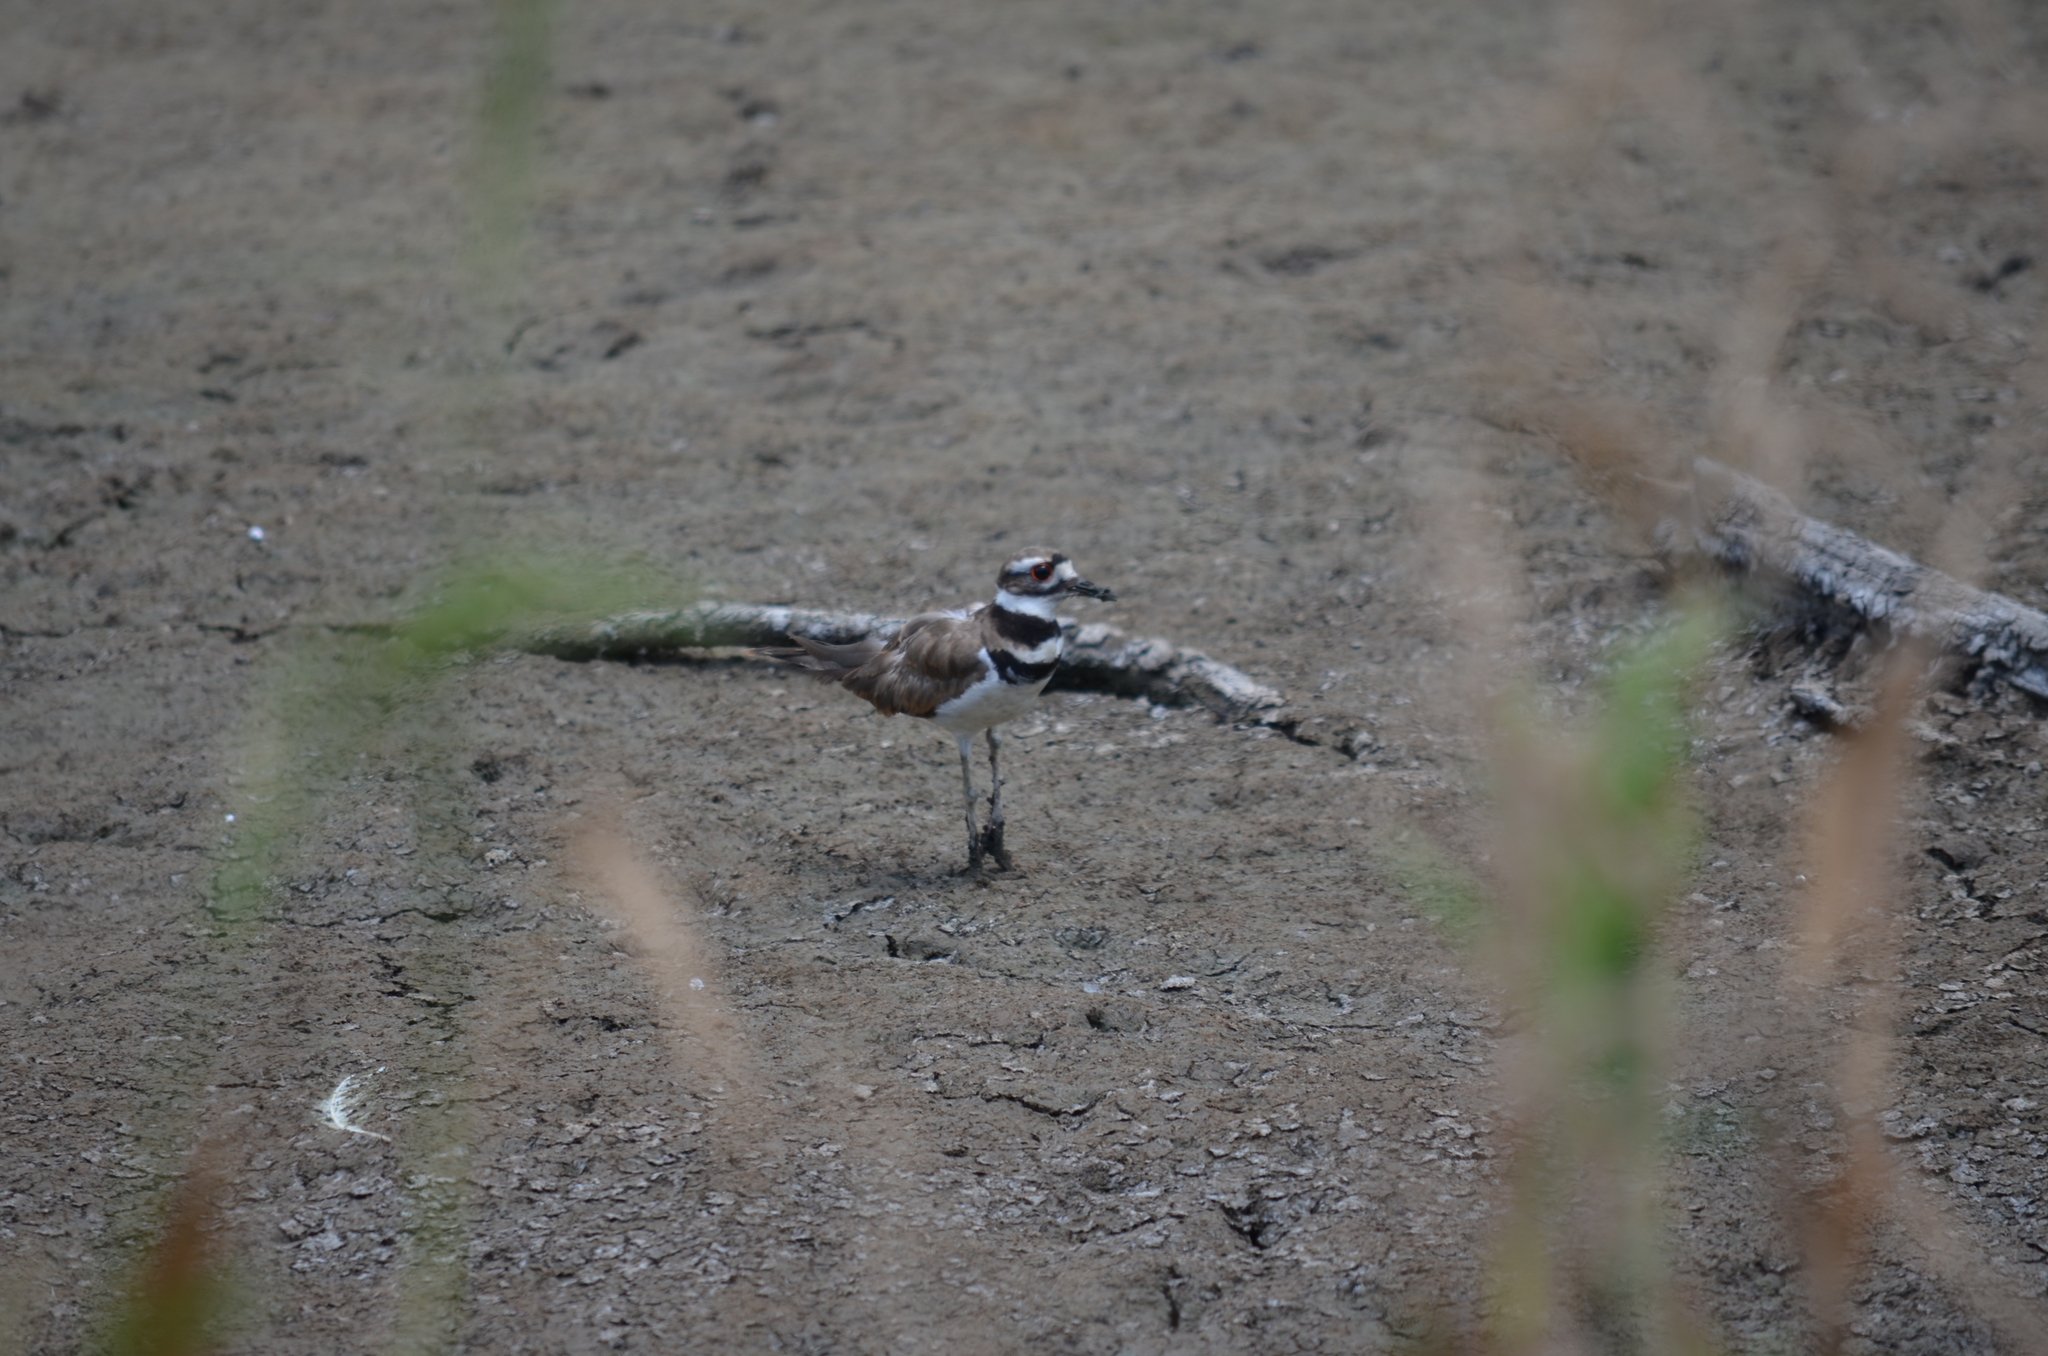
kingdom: Animalia
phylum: Chordata
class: Aves
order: Charadriiformes
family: Charadriidae
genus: Charadrius
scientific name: Charadrius vociferus
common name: Killdeer
